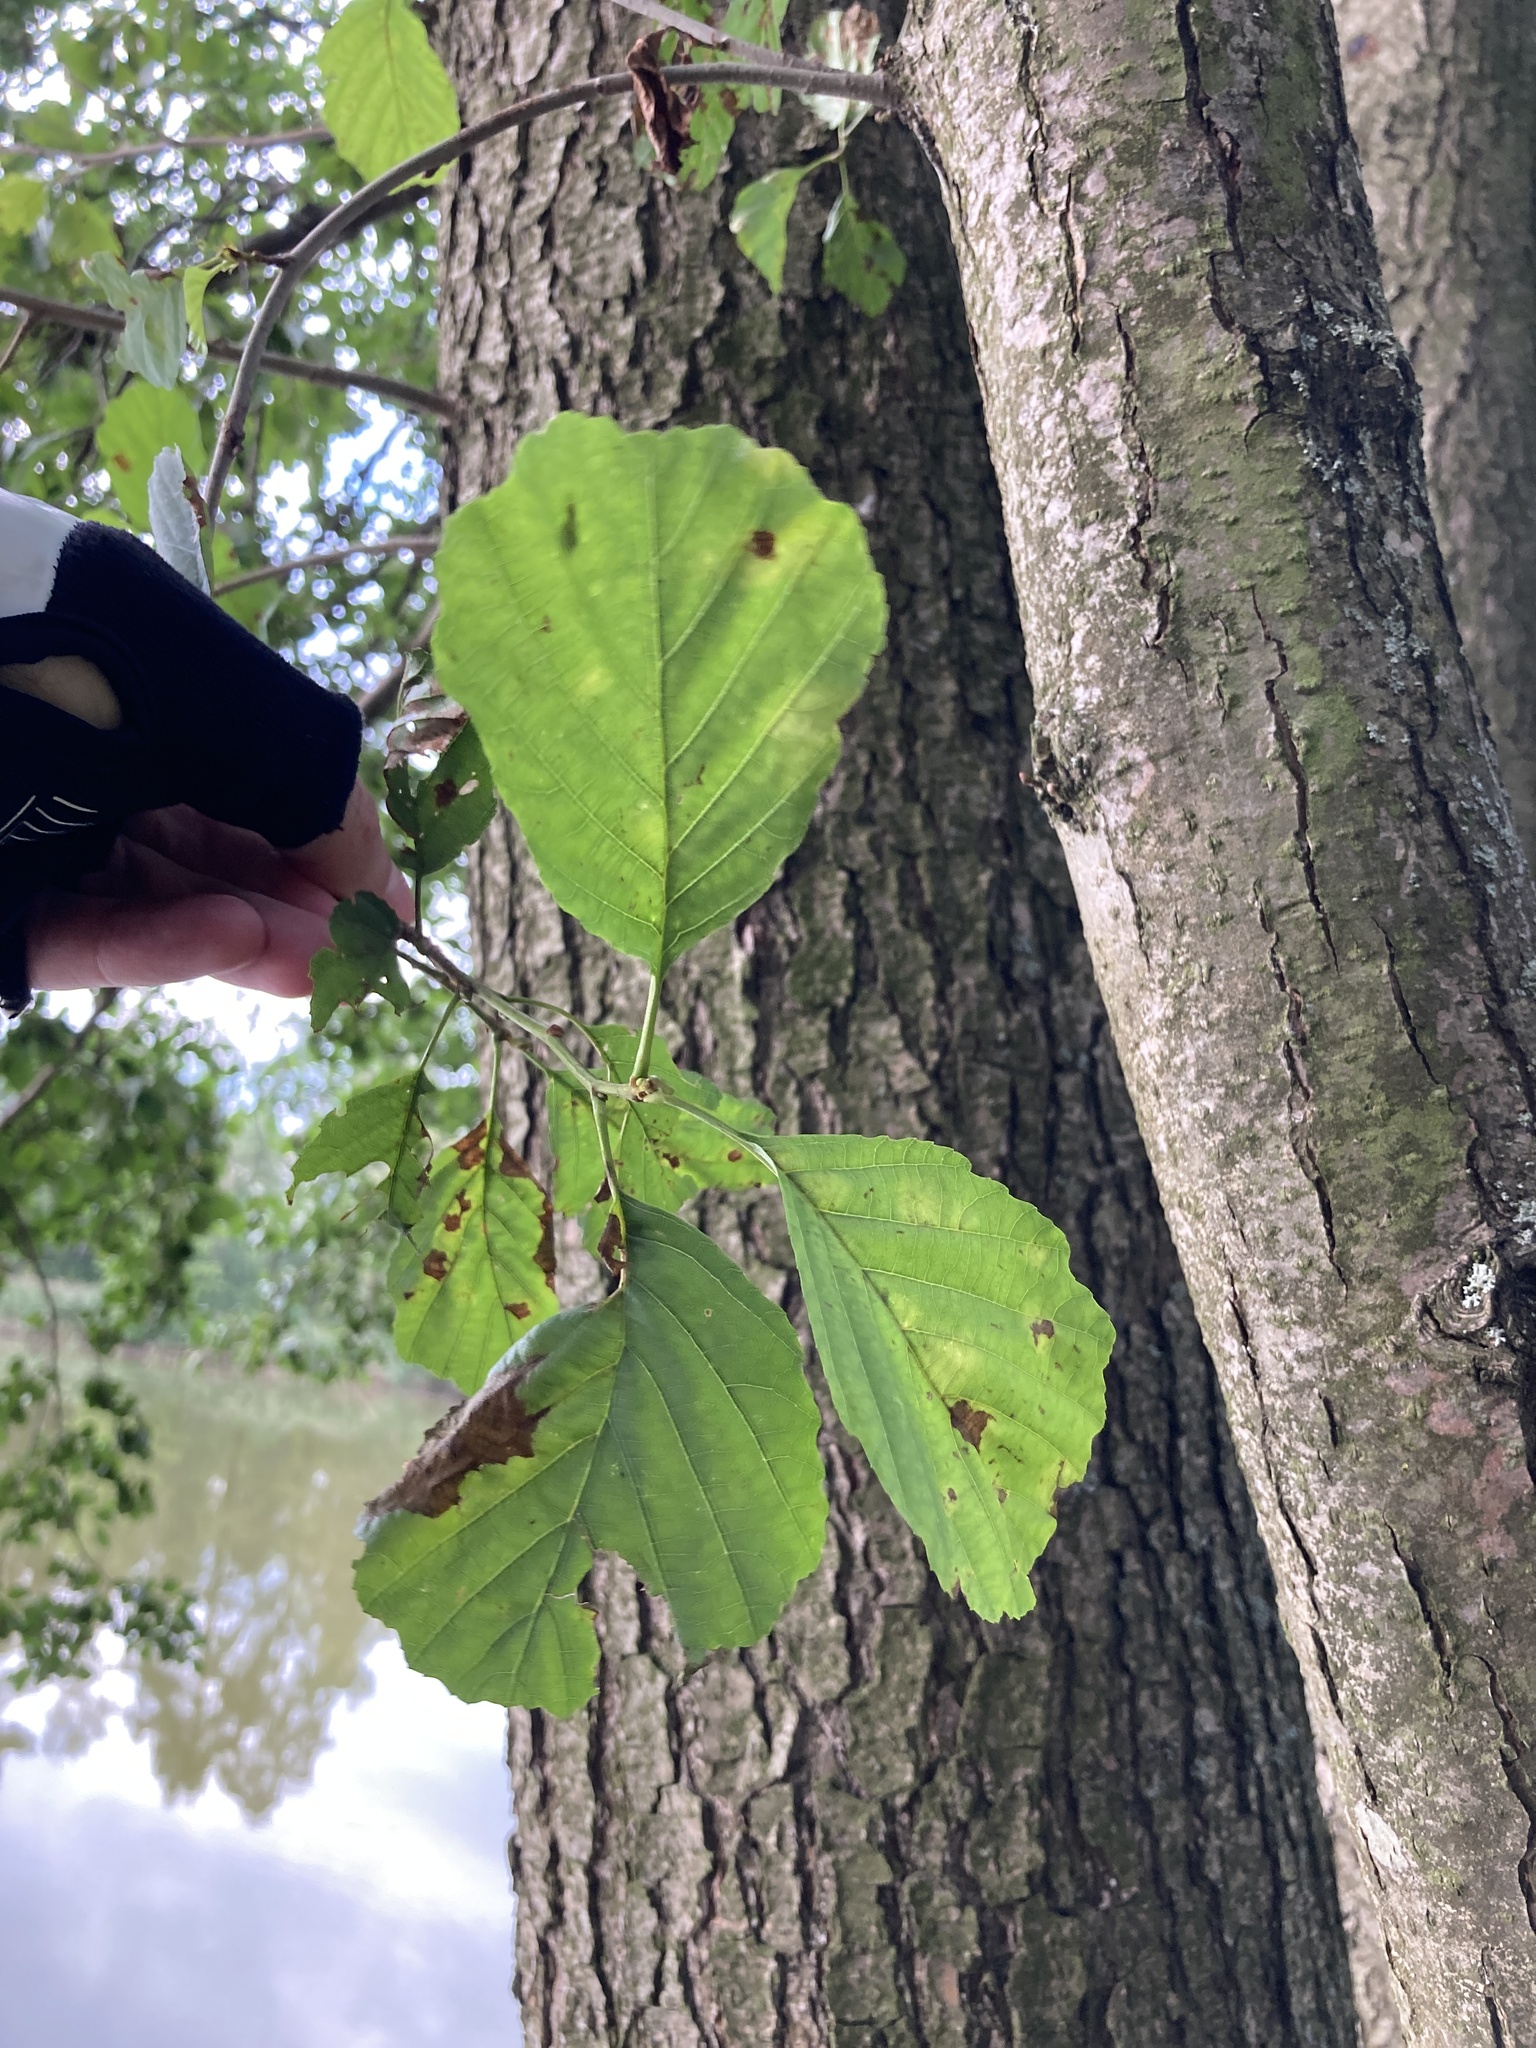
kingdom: Plantae
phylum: Tracheophyta
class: Magnoliopsida
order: Fagales
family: Betulaceae
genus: Alnus
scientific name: Alnus glutinosa
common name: Black alder
